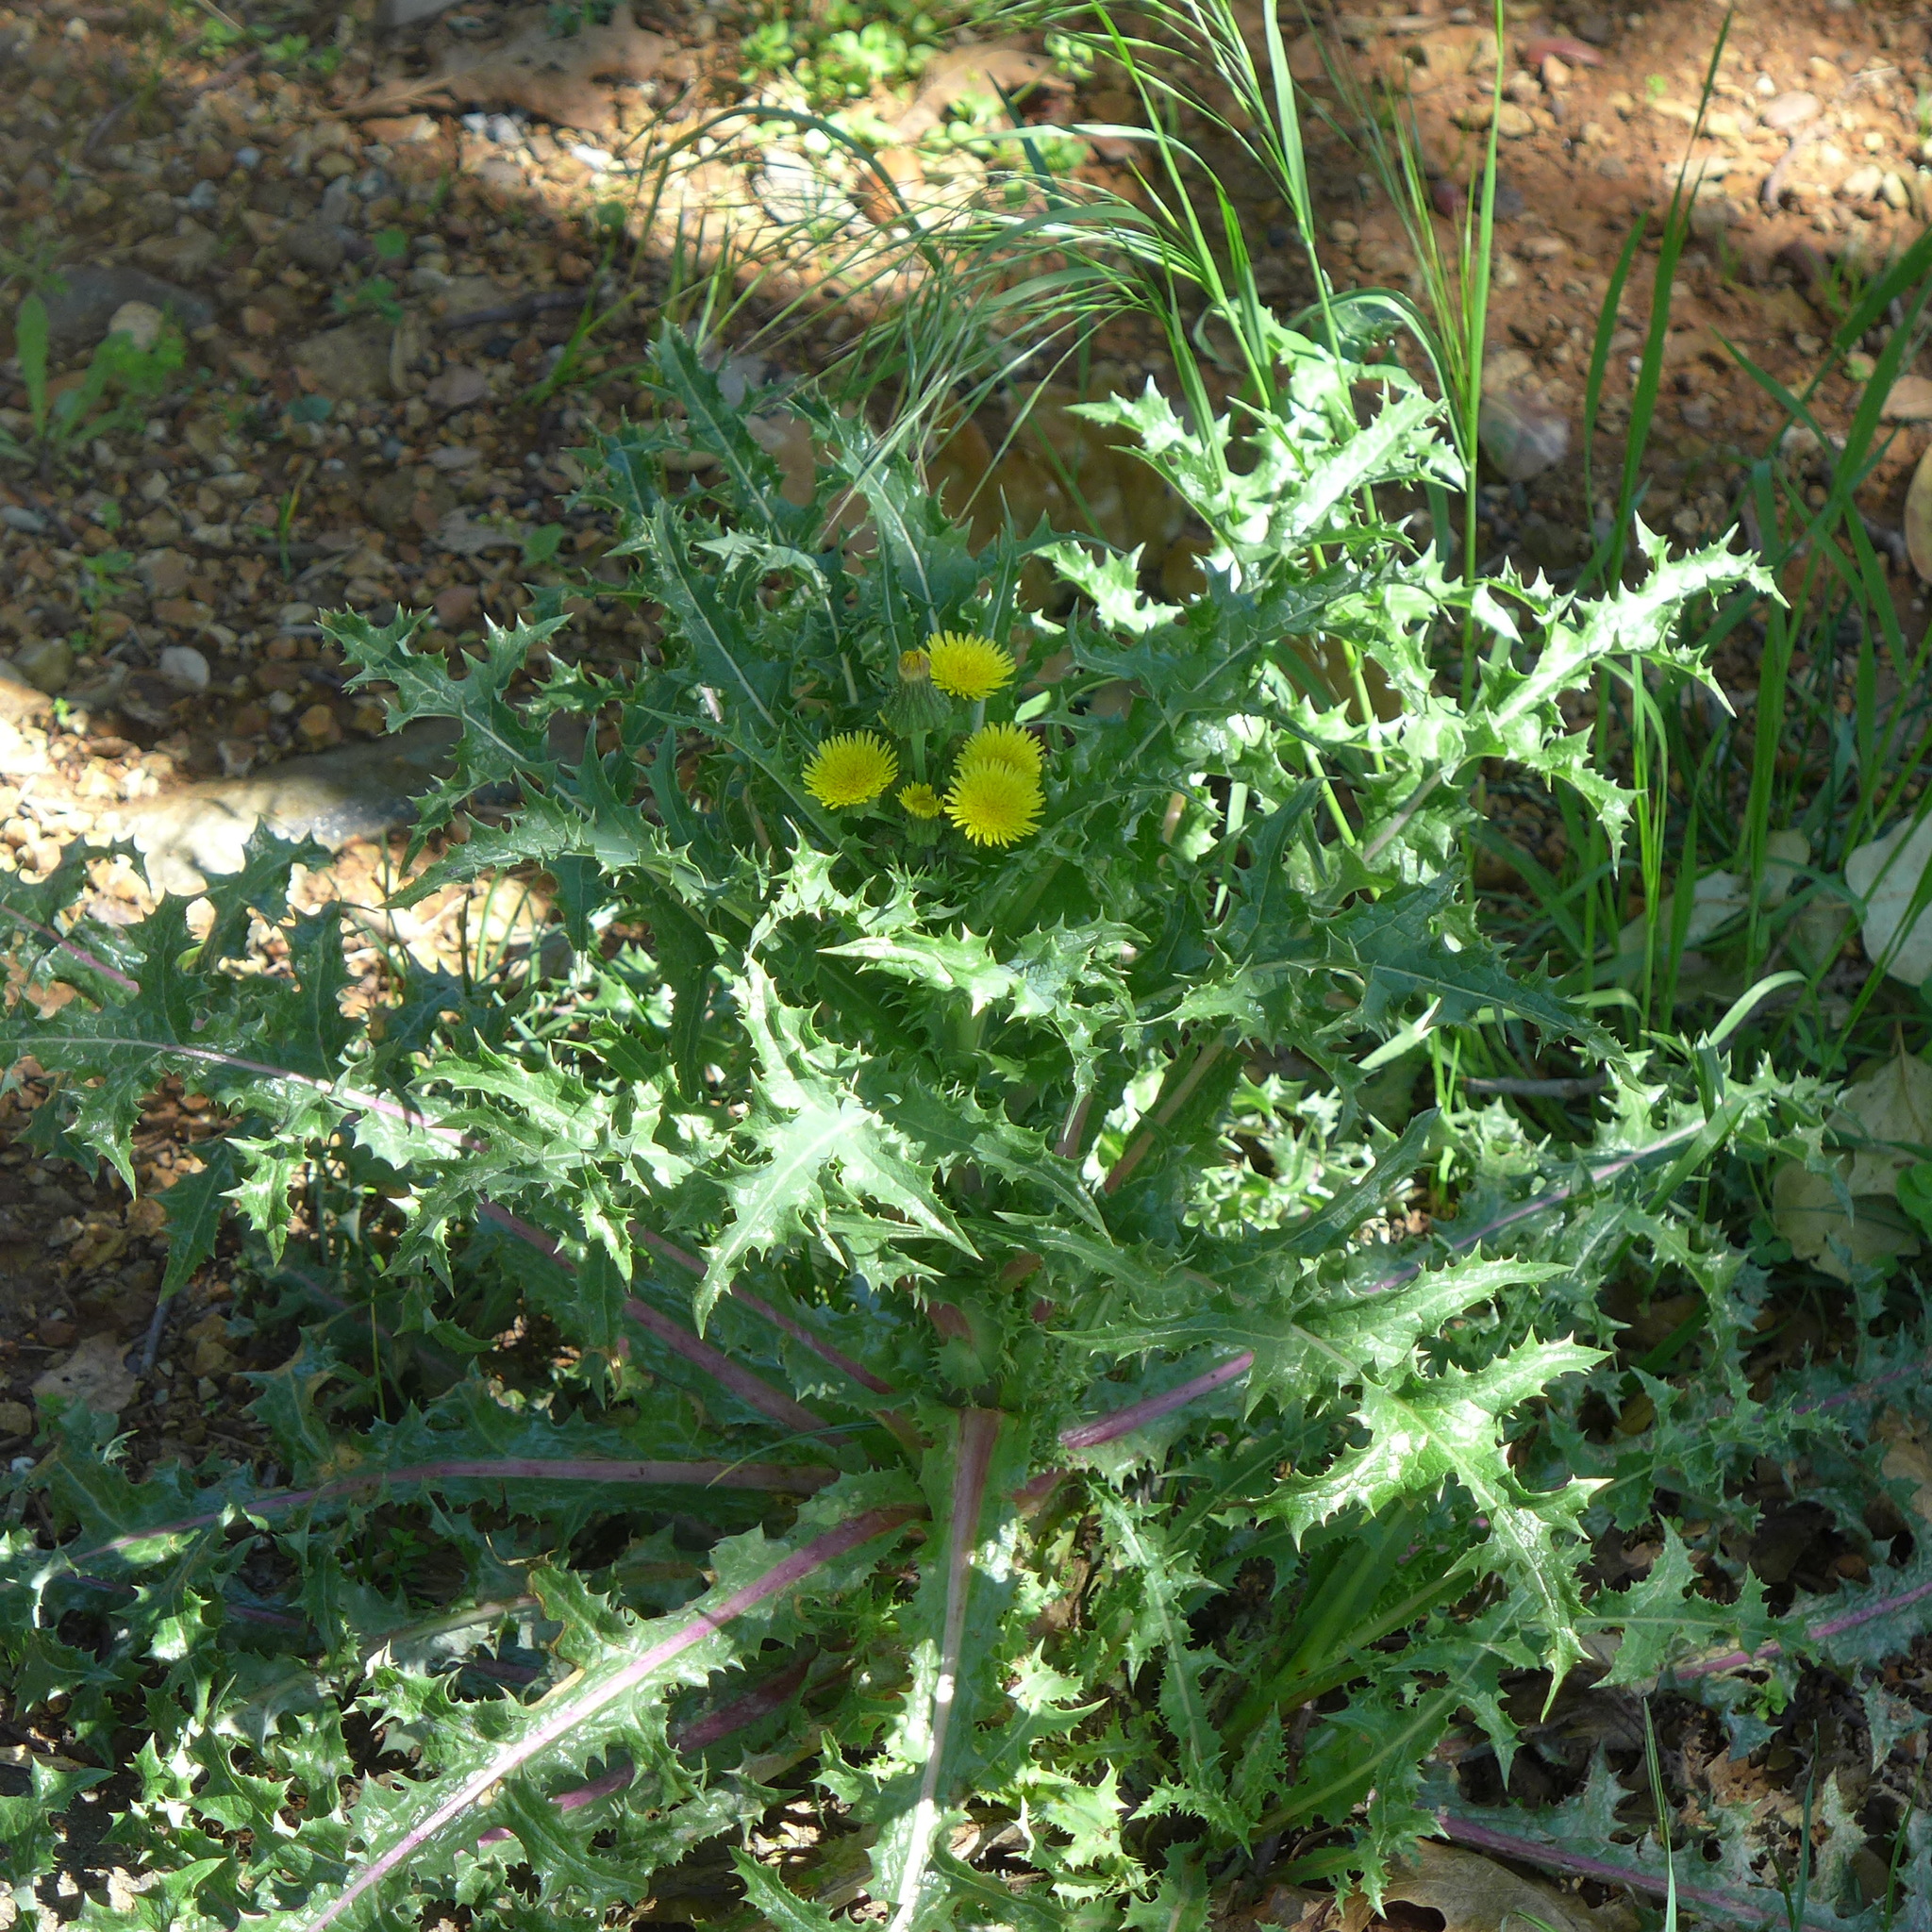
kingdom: Plantae
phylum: Tracheophyta
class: Magnoliopsida
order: Asterales
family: Asteraceae
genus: Sonchus
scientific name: Sonchus asper
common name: Prickly sow-thistle
